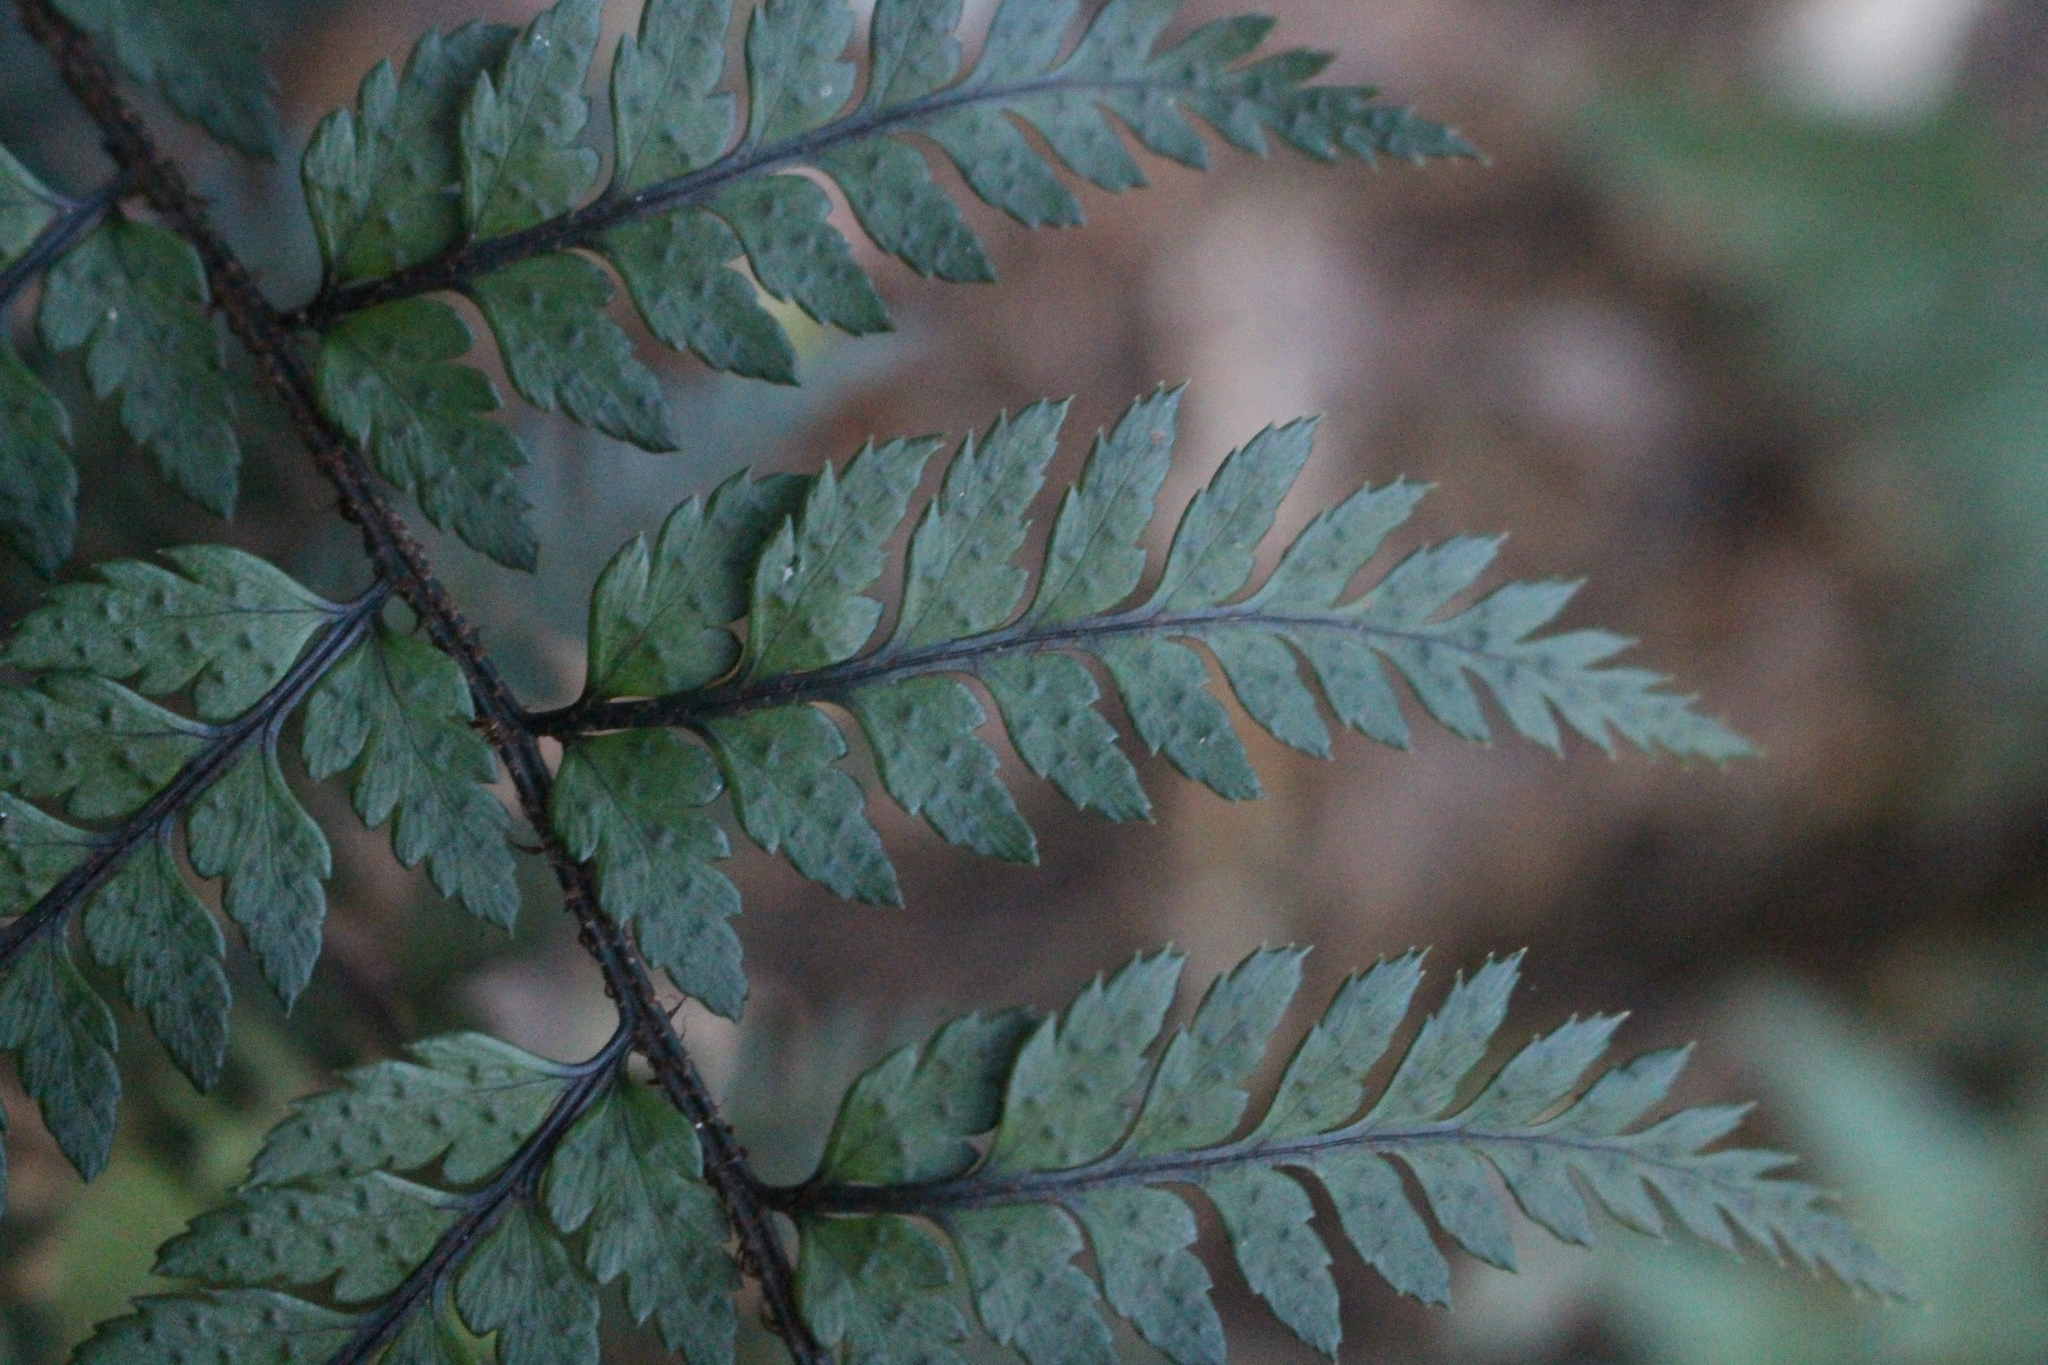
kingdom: Plantae
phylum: Tracheophyta
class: Polypodiopsida
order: Polypodiales
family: Dryopteridaceae
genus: Polystichum
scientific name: Polystichum neozelandicum
